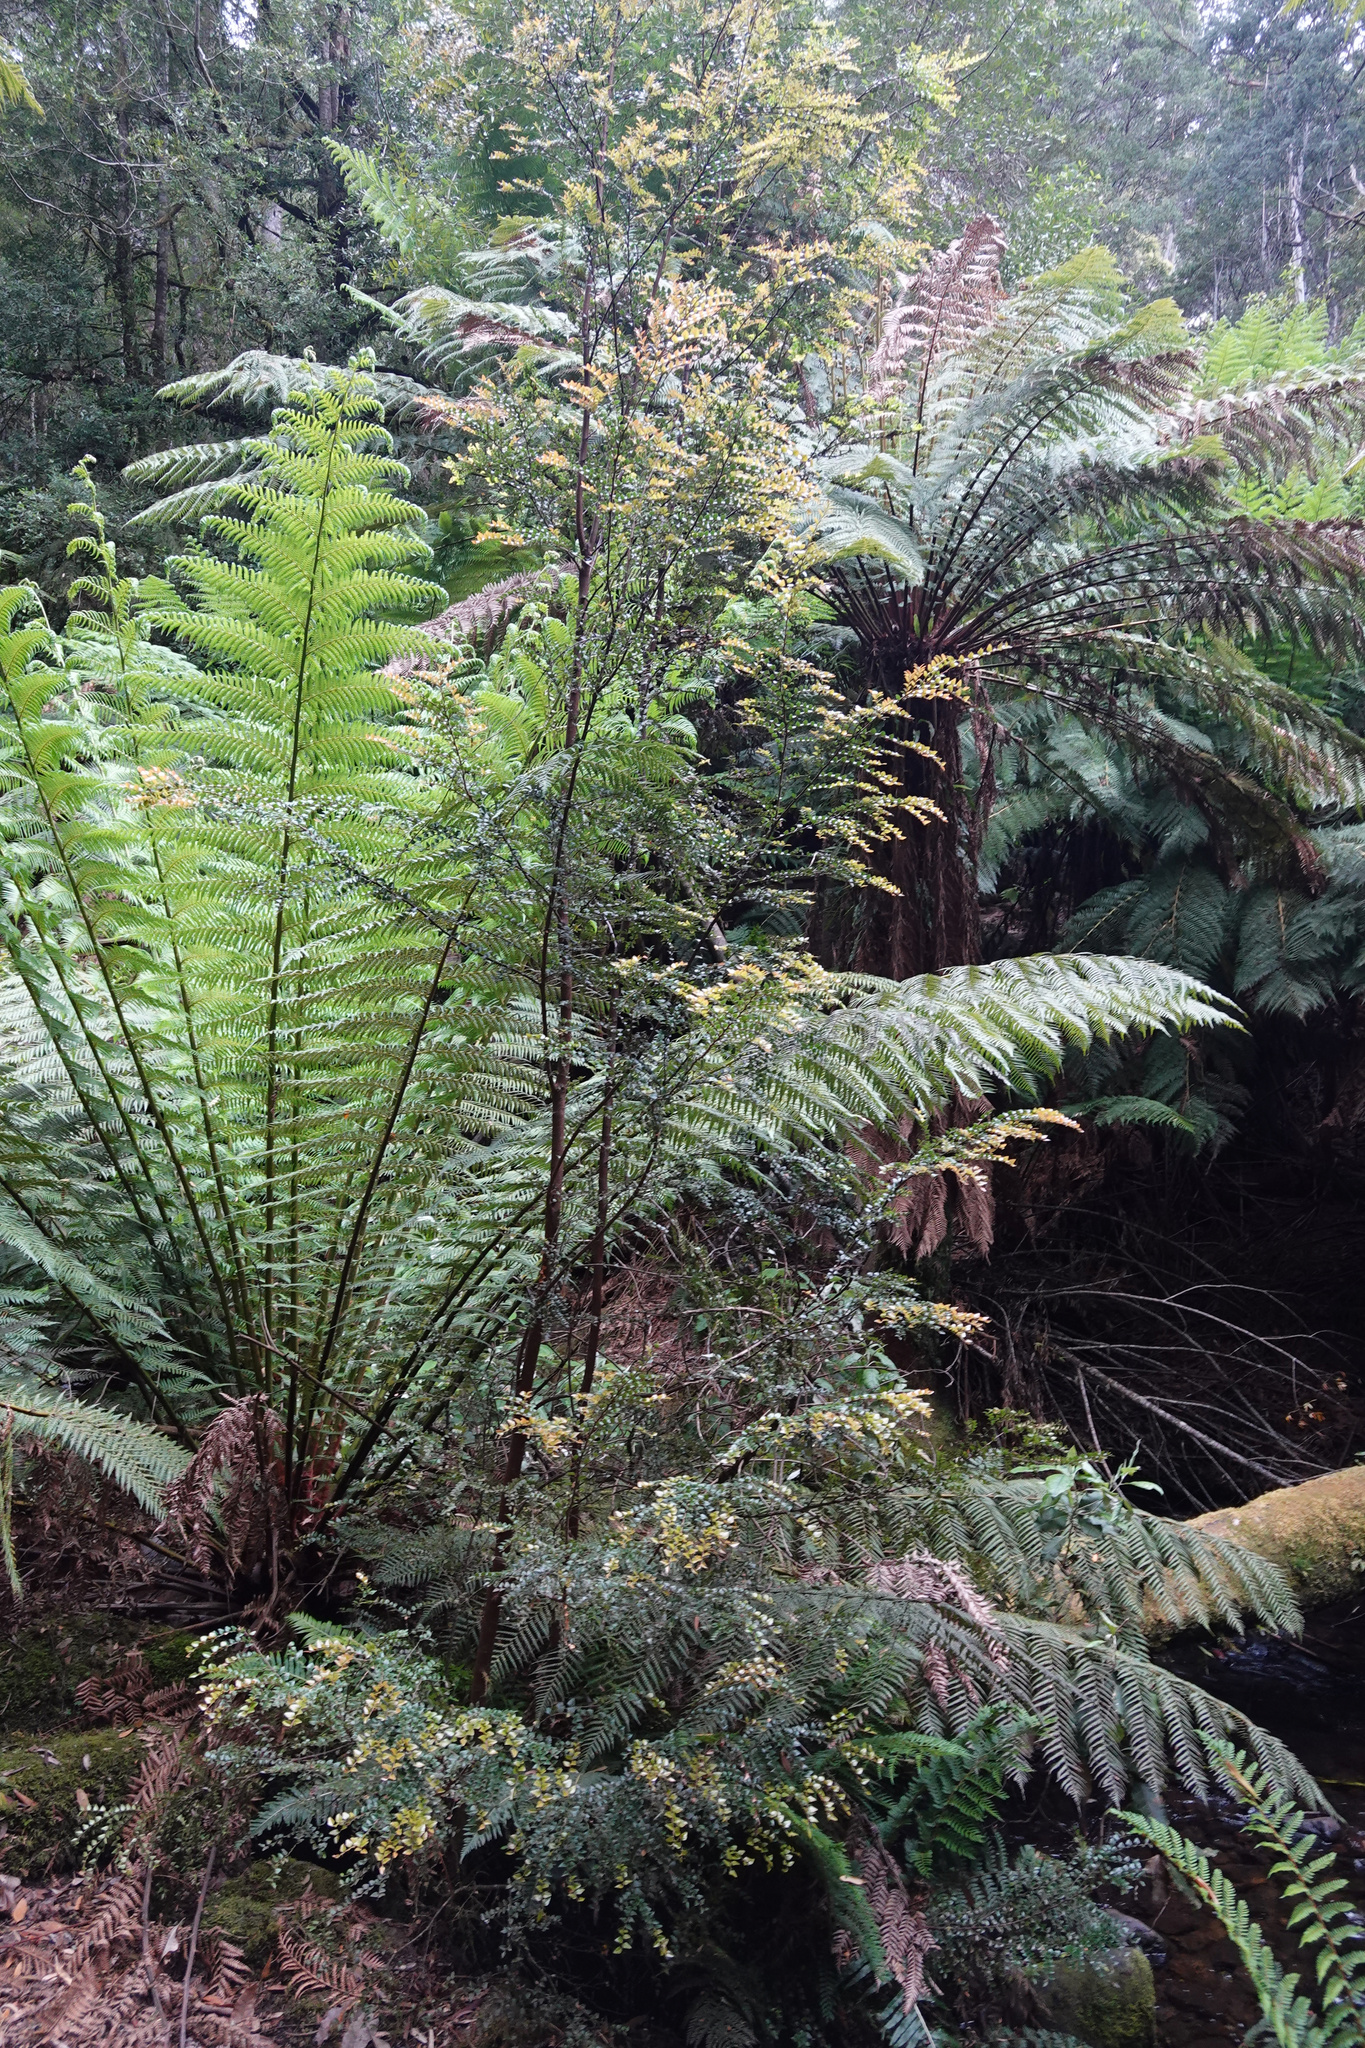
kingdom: Plantae
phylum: Tracheophyta
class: Magnoliopsida
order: Fagales
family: Nothofagaceae
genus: Nothofagus
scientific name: Nothofagus cunninghamii
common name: Myrtle beech
